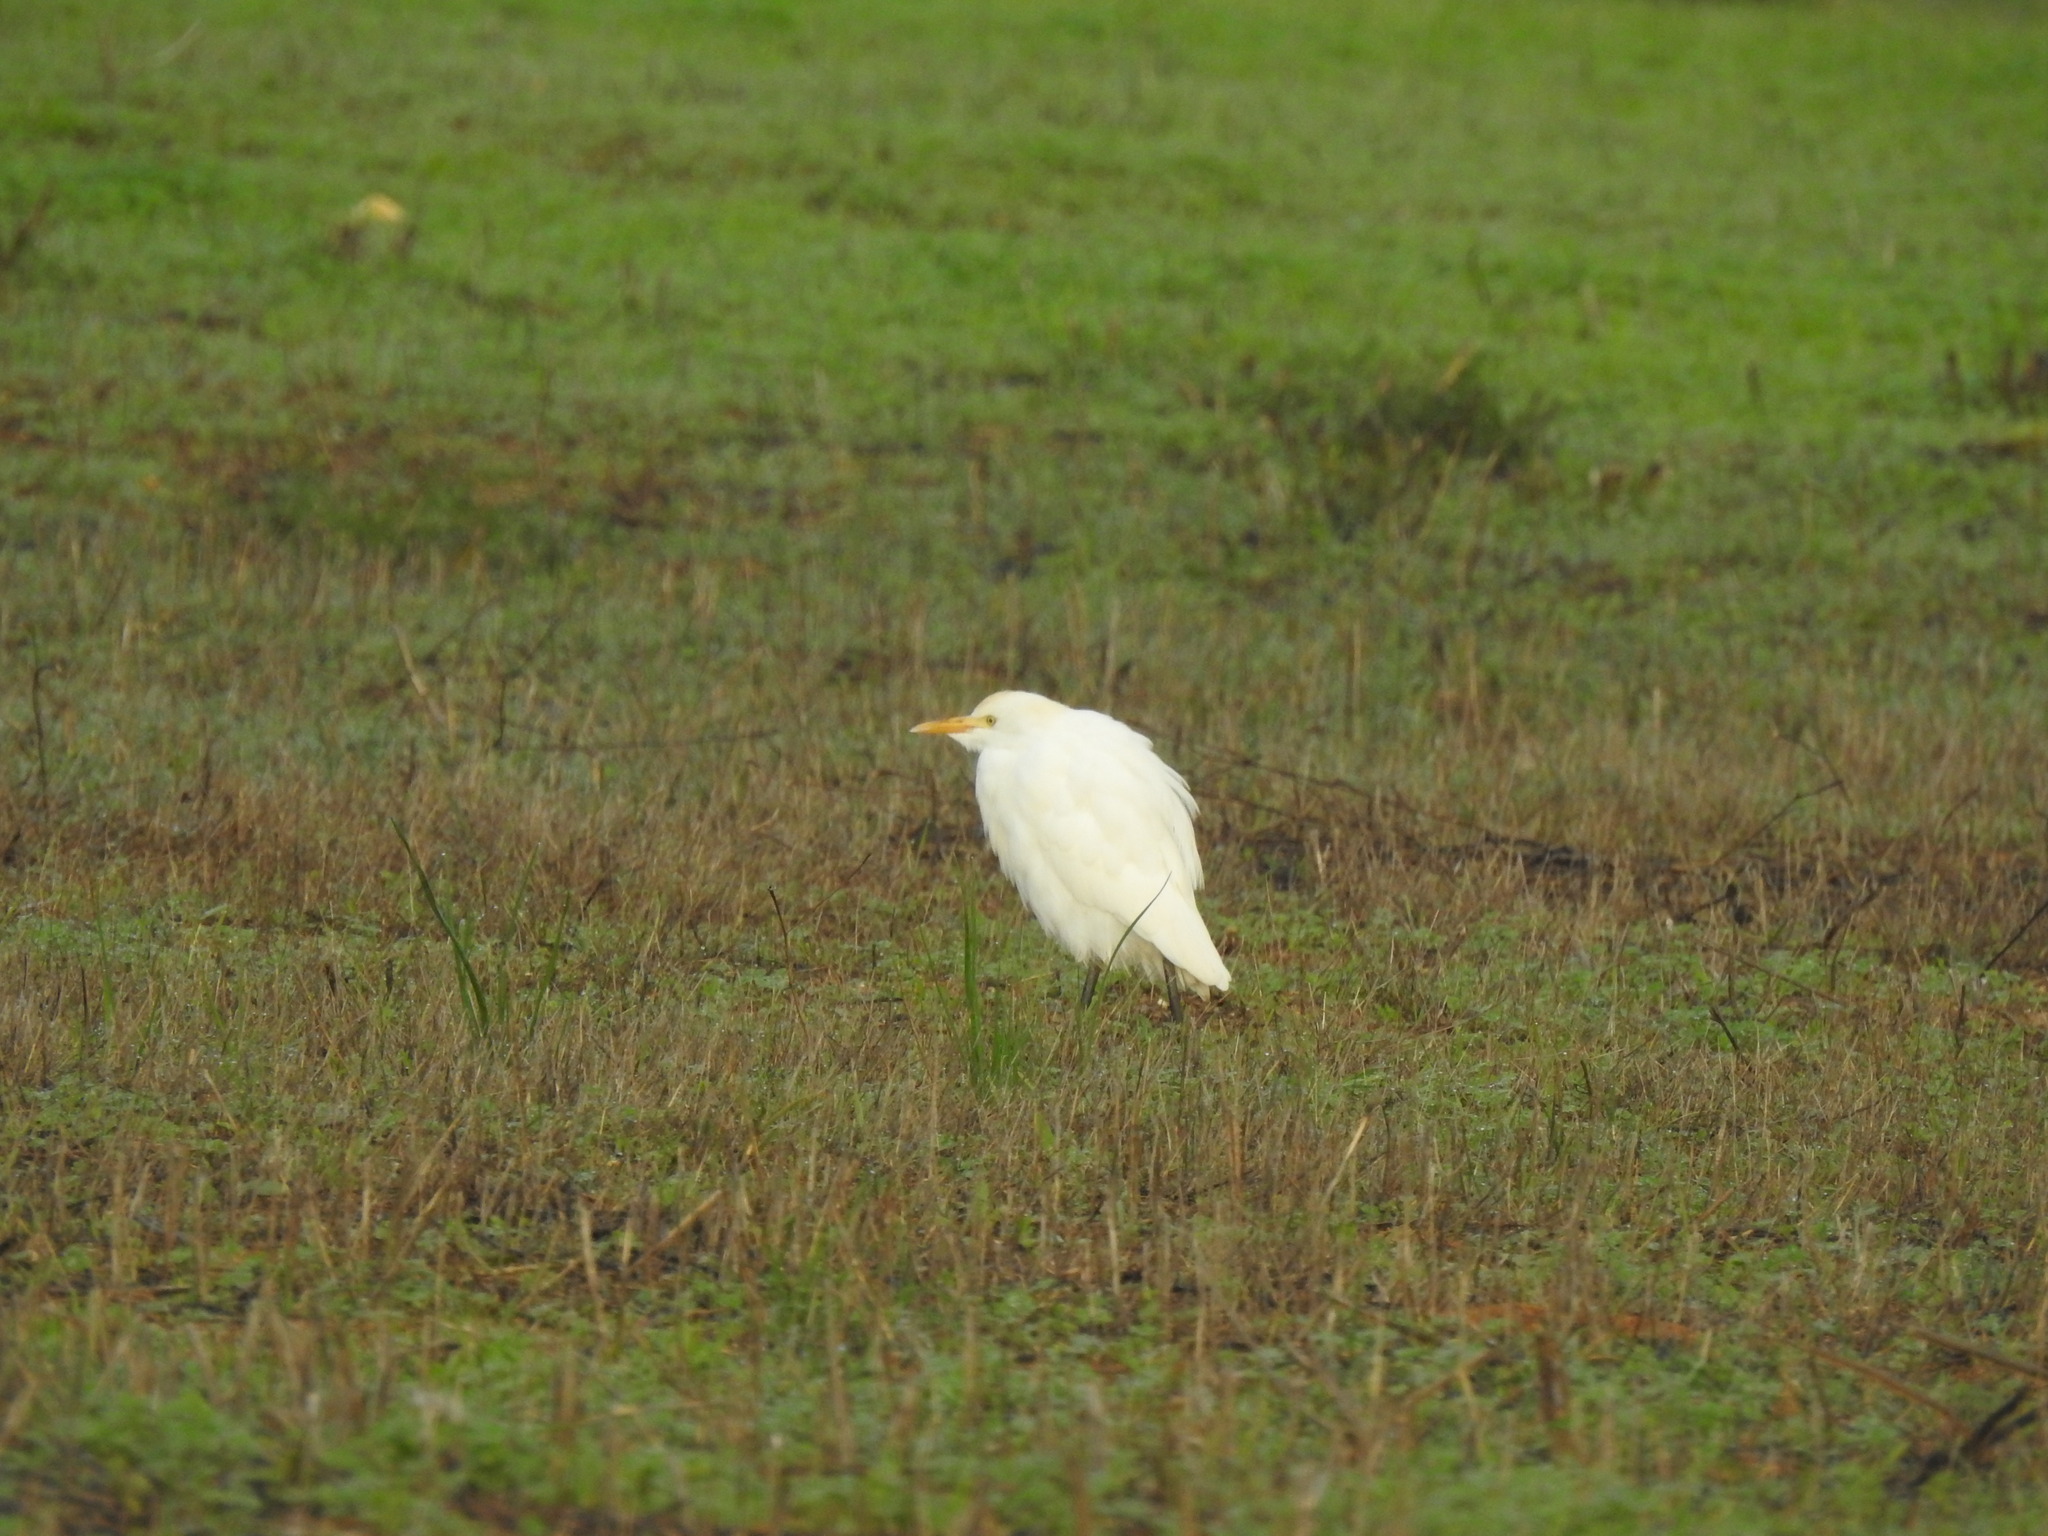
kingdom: Animalia
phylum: Chordata
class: Aves
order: Pelecaniformes
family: Ardeidae
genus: Bubulcus
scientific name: Bubulcus ibis
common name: Cattle egret
